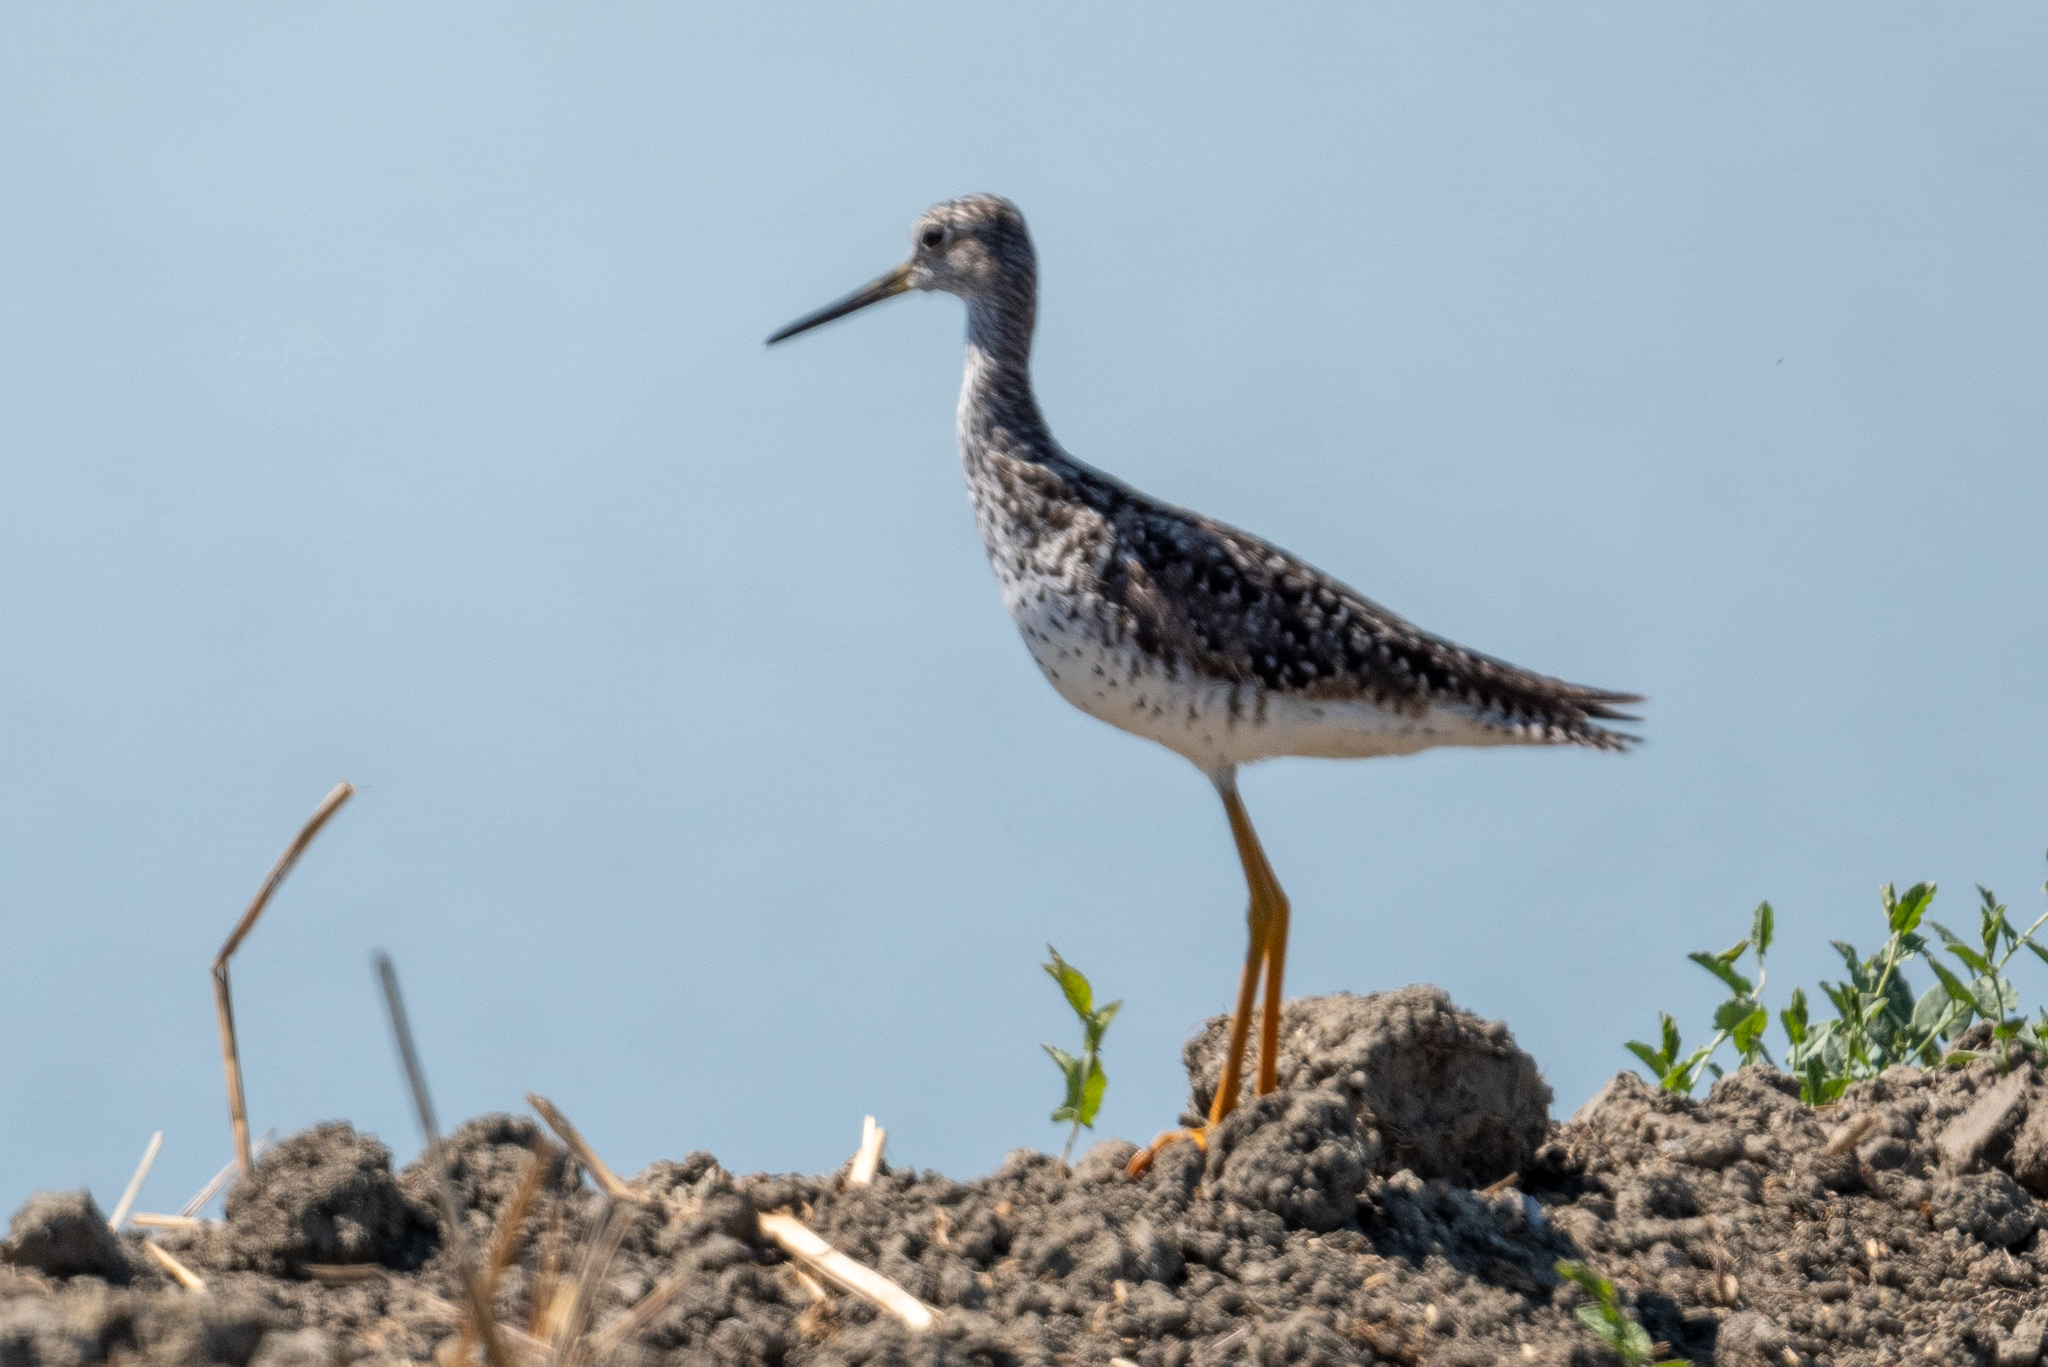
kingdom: Animalia
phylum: Chordata
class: Aves
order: Charadriiformes
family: Scolopacidae
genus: Tringa
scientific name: Tringa melanoleuca
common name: Greater yellowlegs
